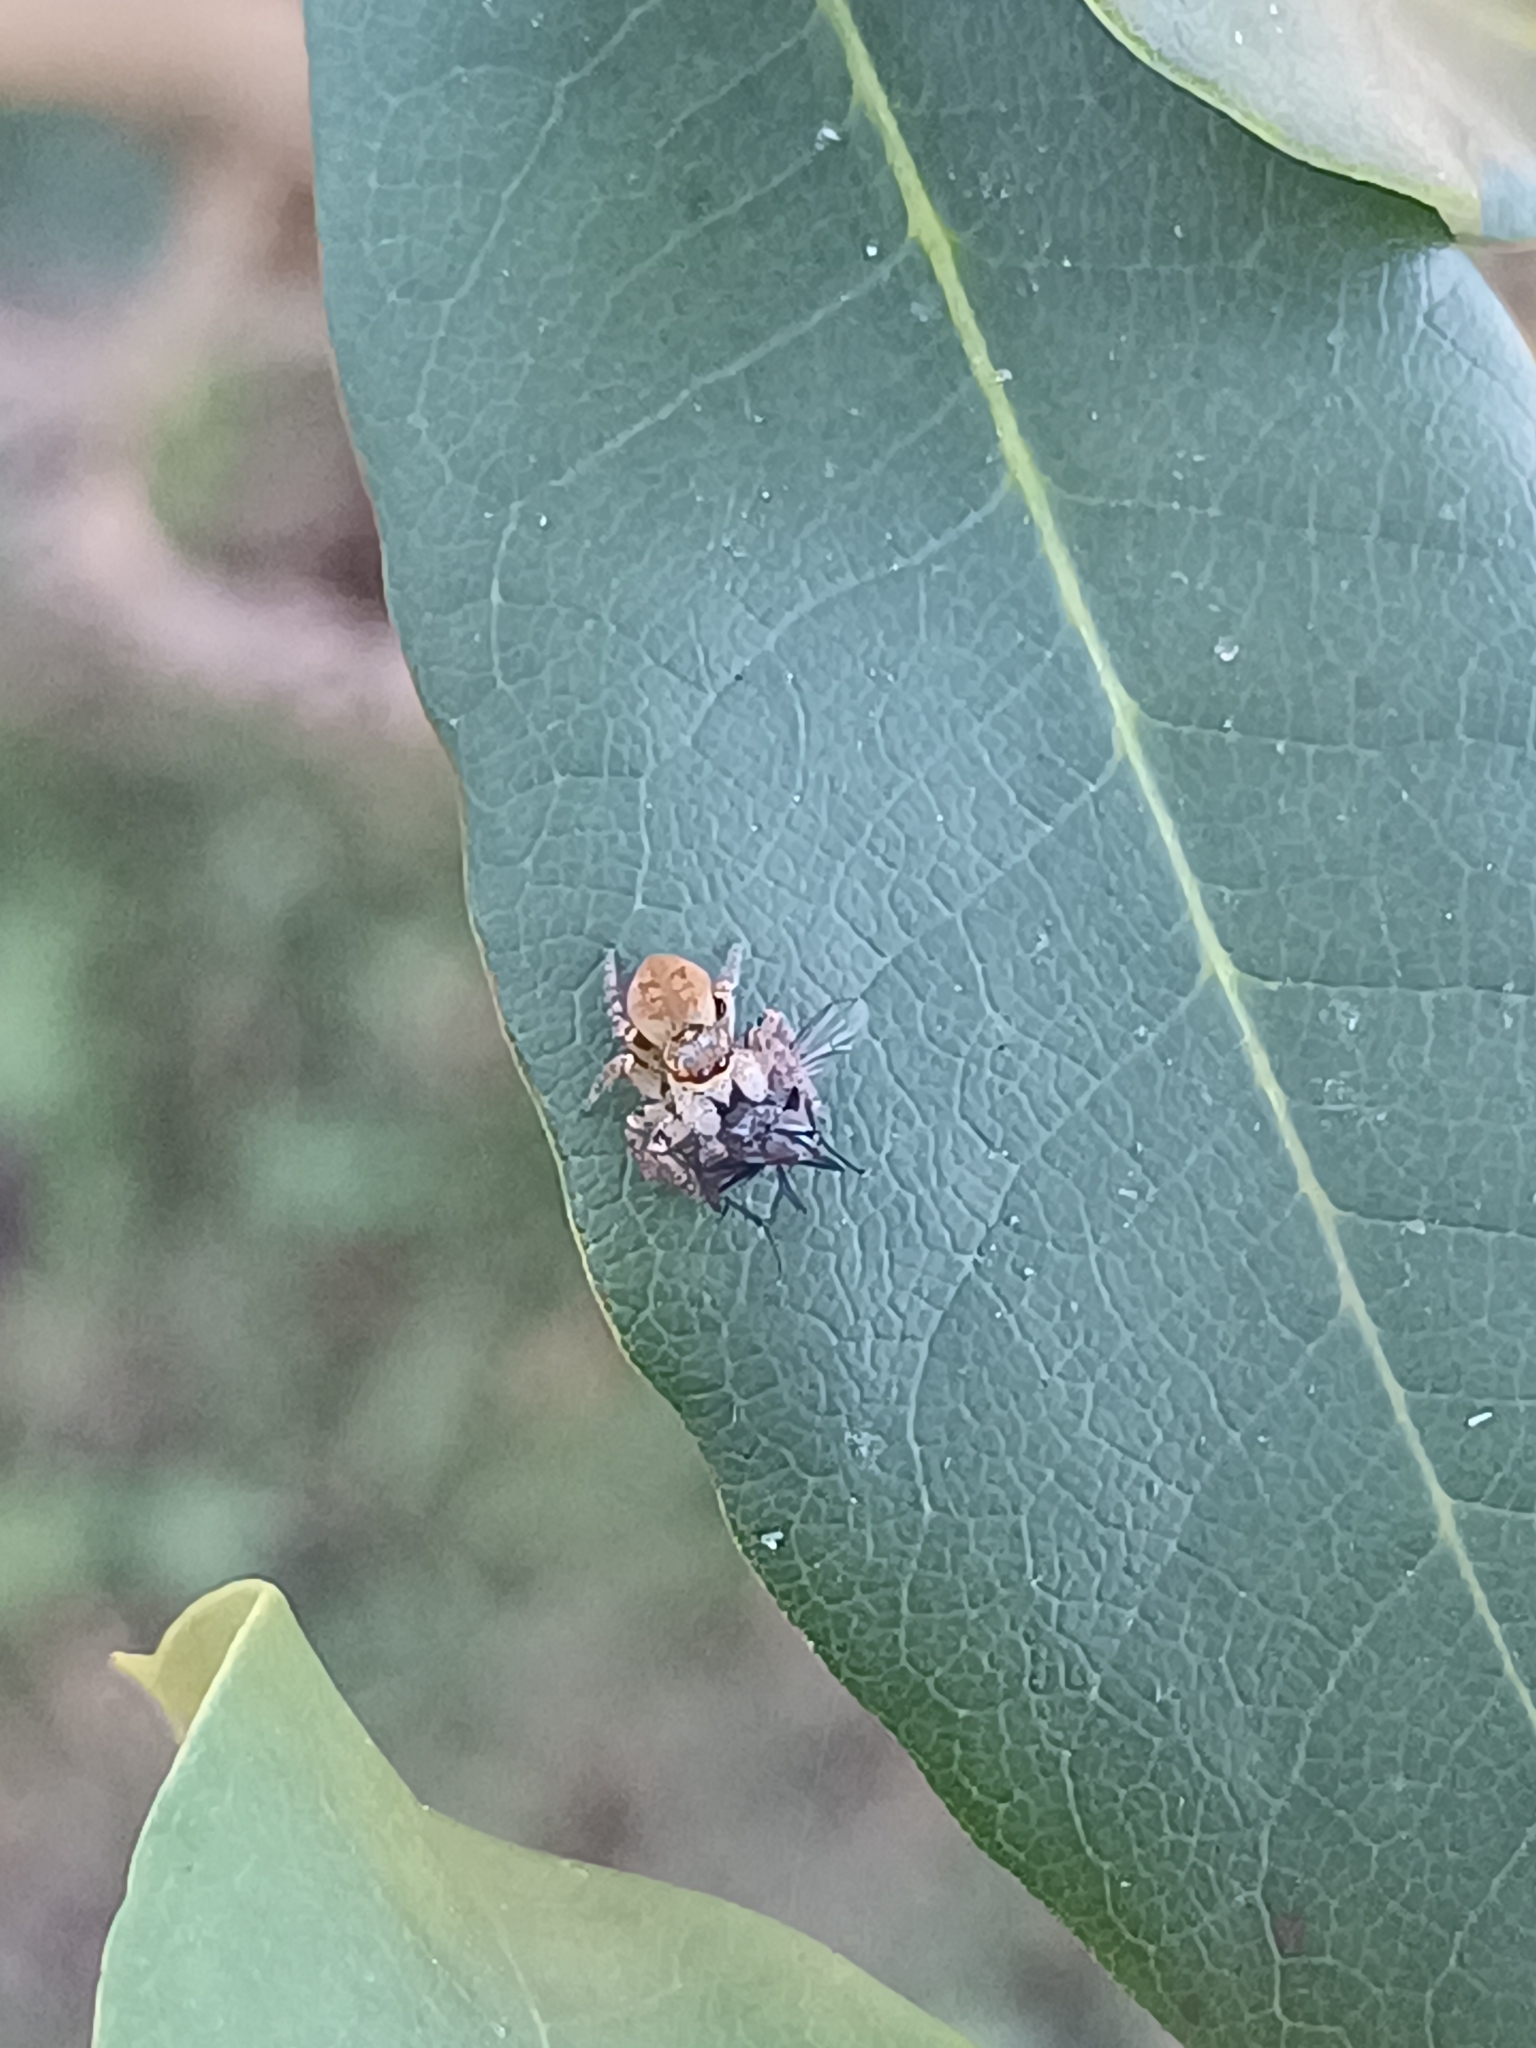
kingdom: Animalia
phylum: Arthropoda
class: Arachnida
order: Araneae
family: Salticidae
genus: Carrhotus
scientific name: Carrhotus xanthogramma
